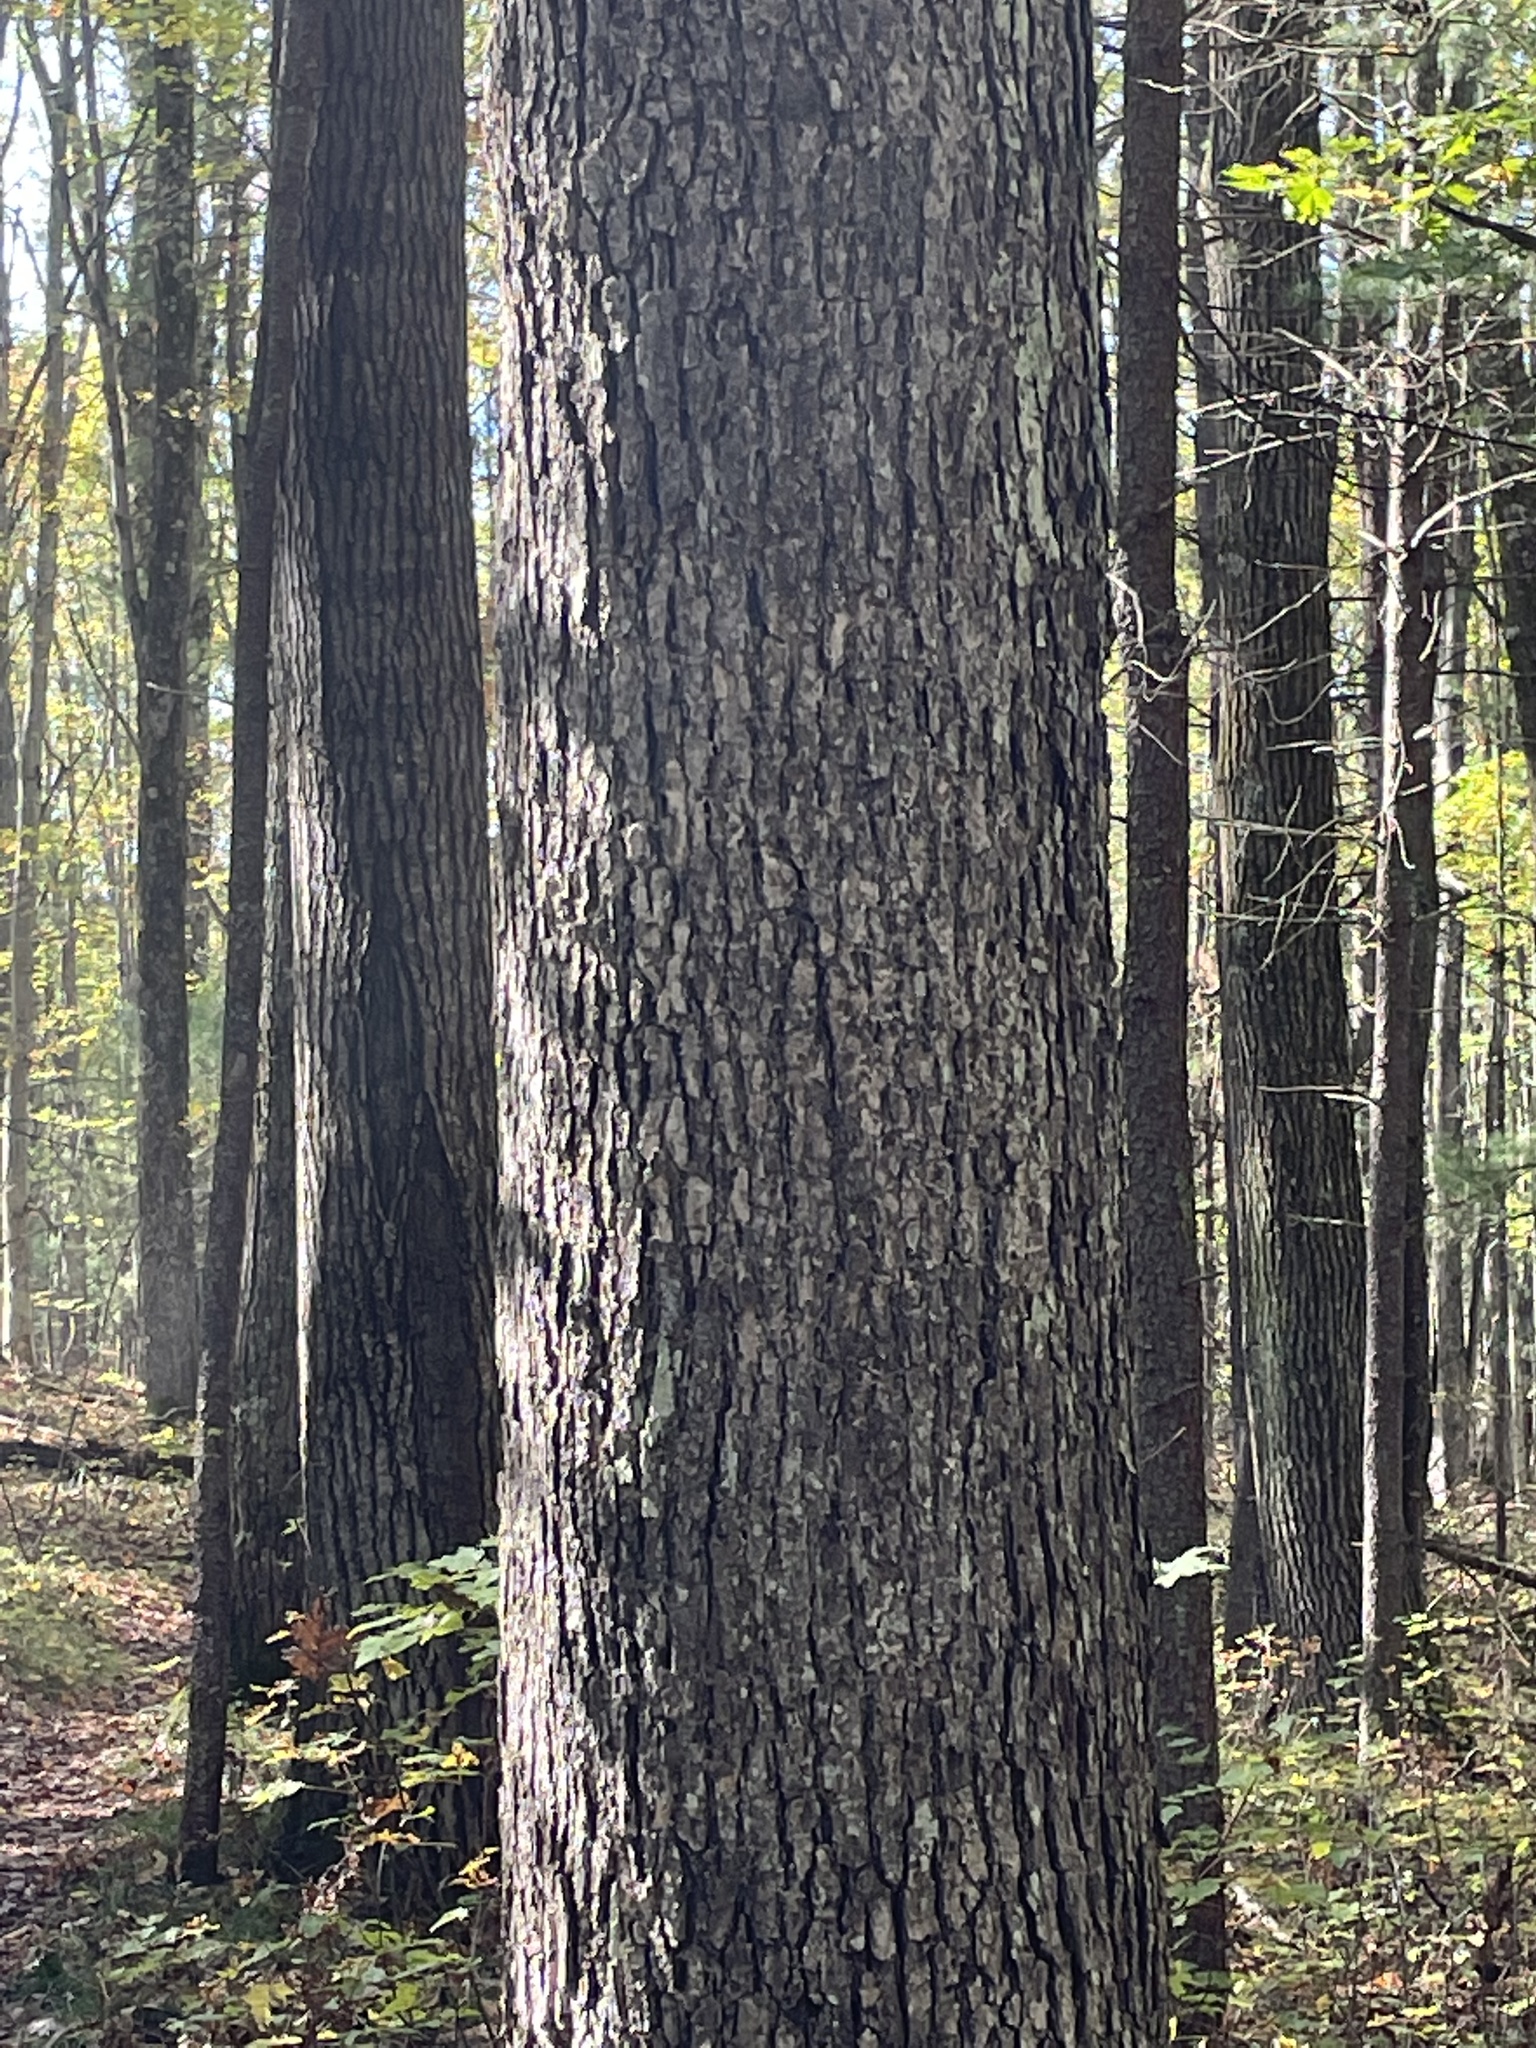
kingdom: Plantae
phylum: Tracheophyta
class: Magnoliopsida
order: Fagales
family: Fagaceae
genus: Quercus
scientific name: Quercus alba
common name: White oak
